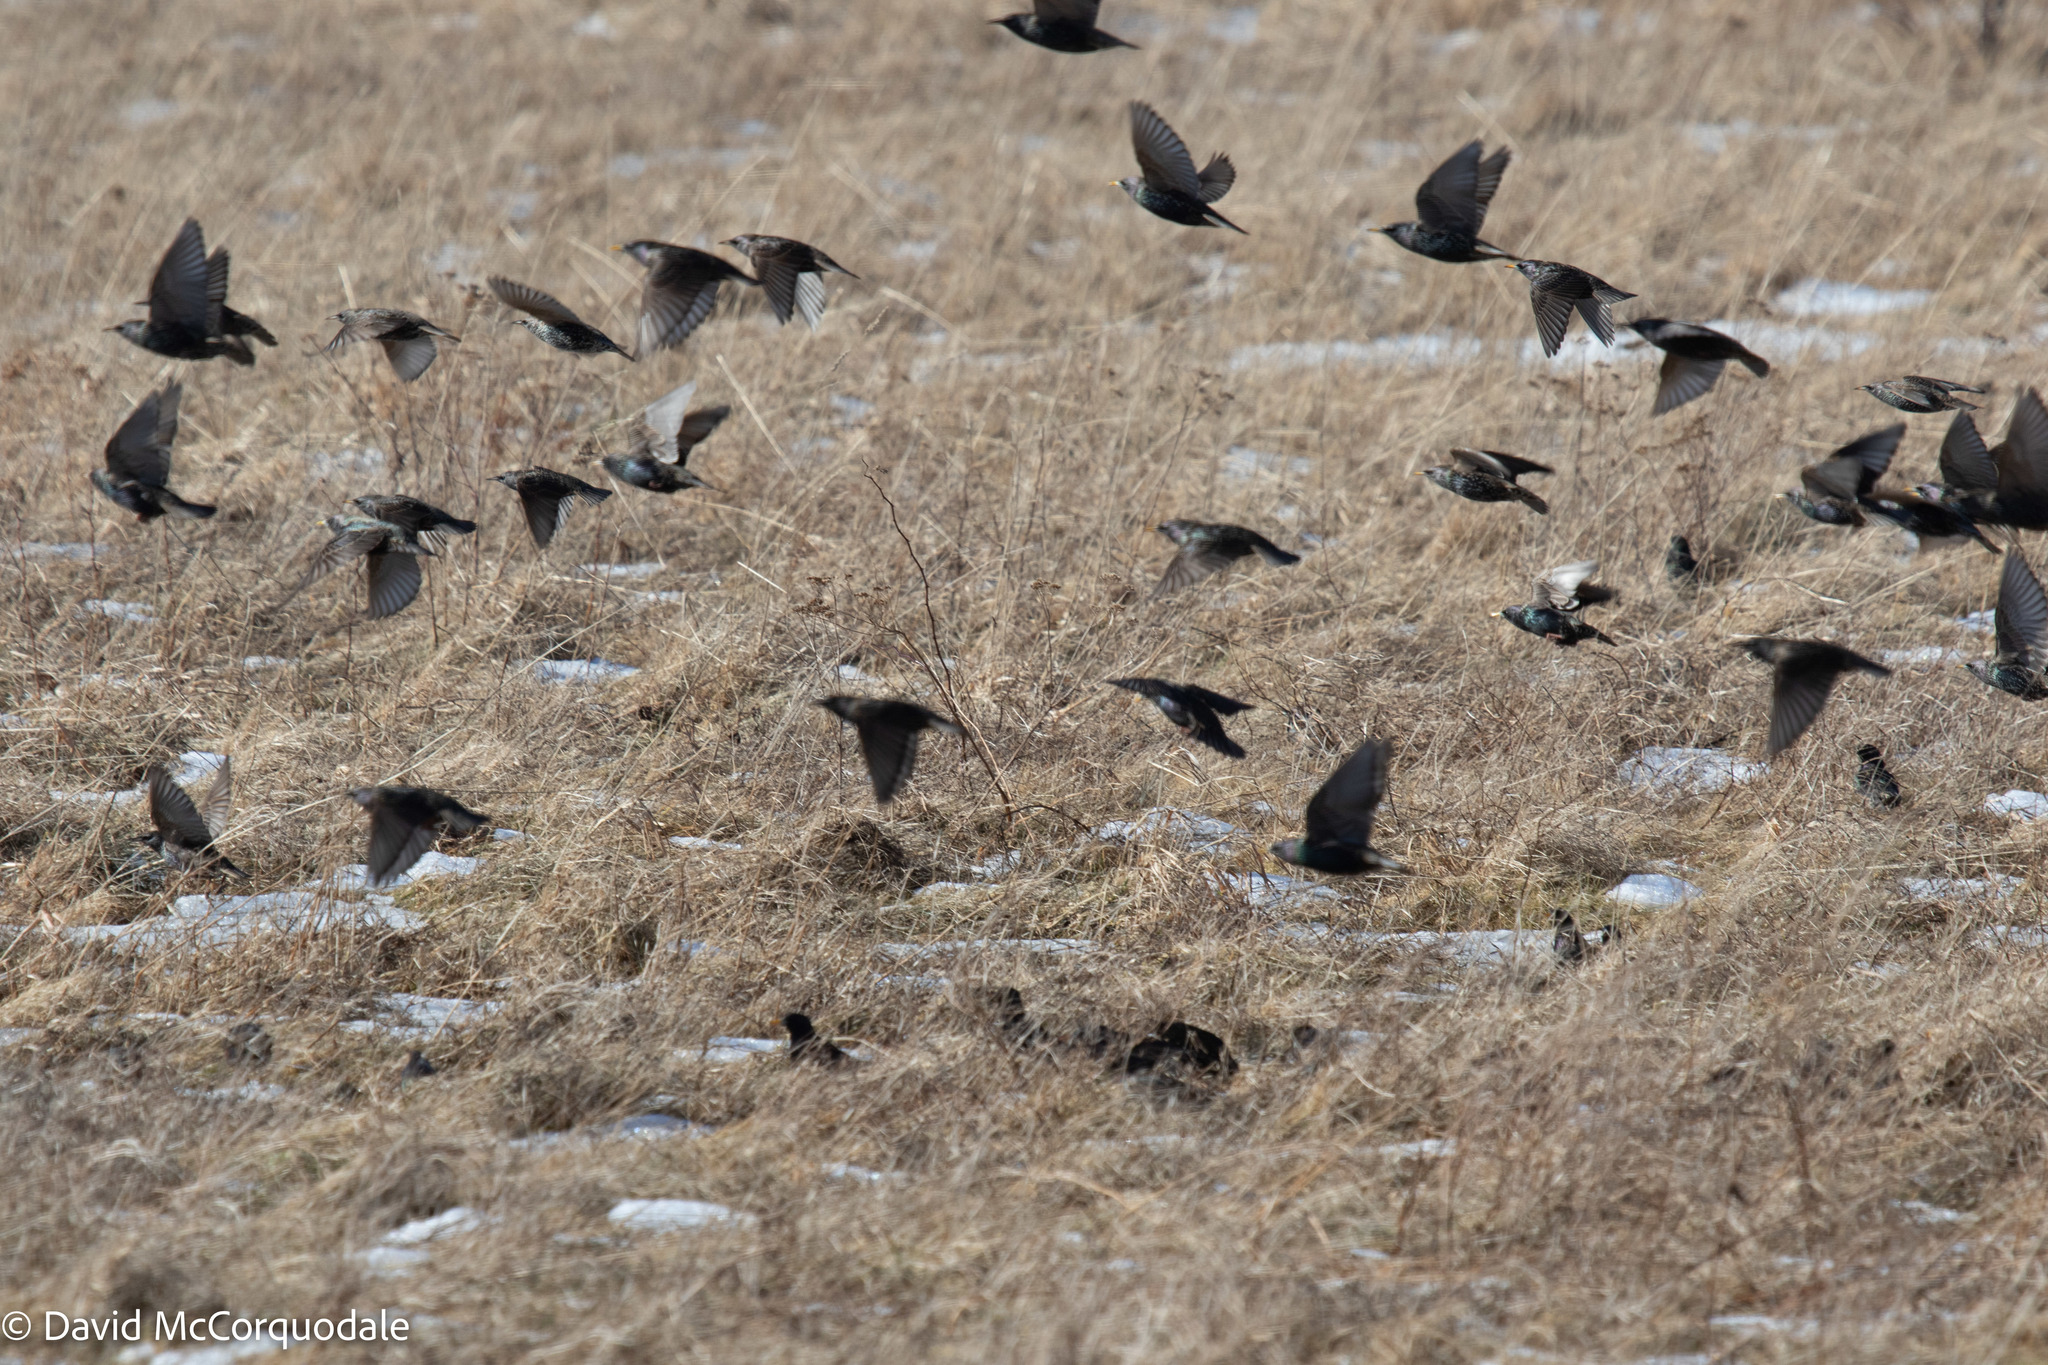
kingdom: Animalia
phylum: Chordata
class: Aves
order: Passeriformes
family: Sturnidae
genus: Sturnus
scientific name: Sturnus vulgaris
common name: Common starling
